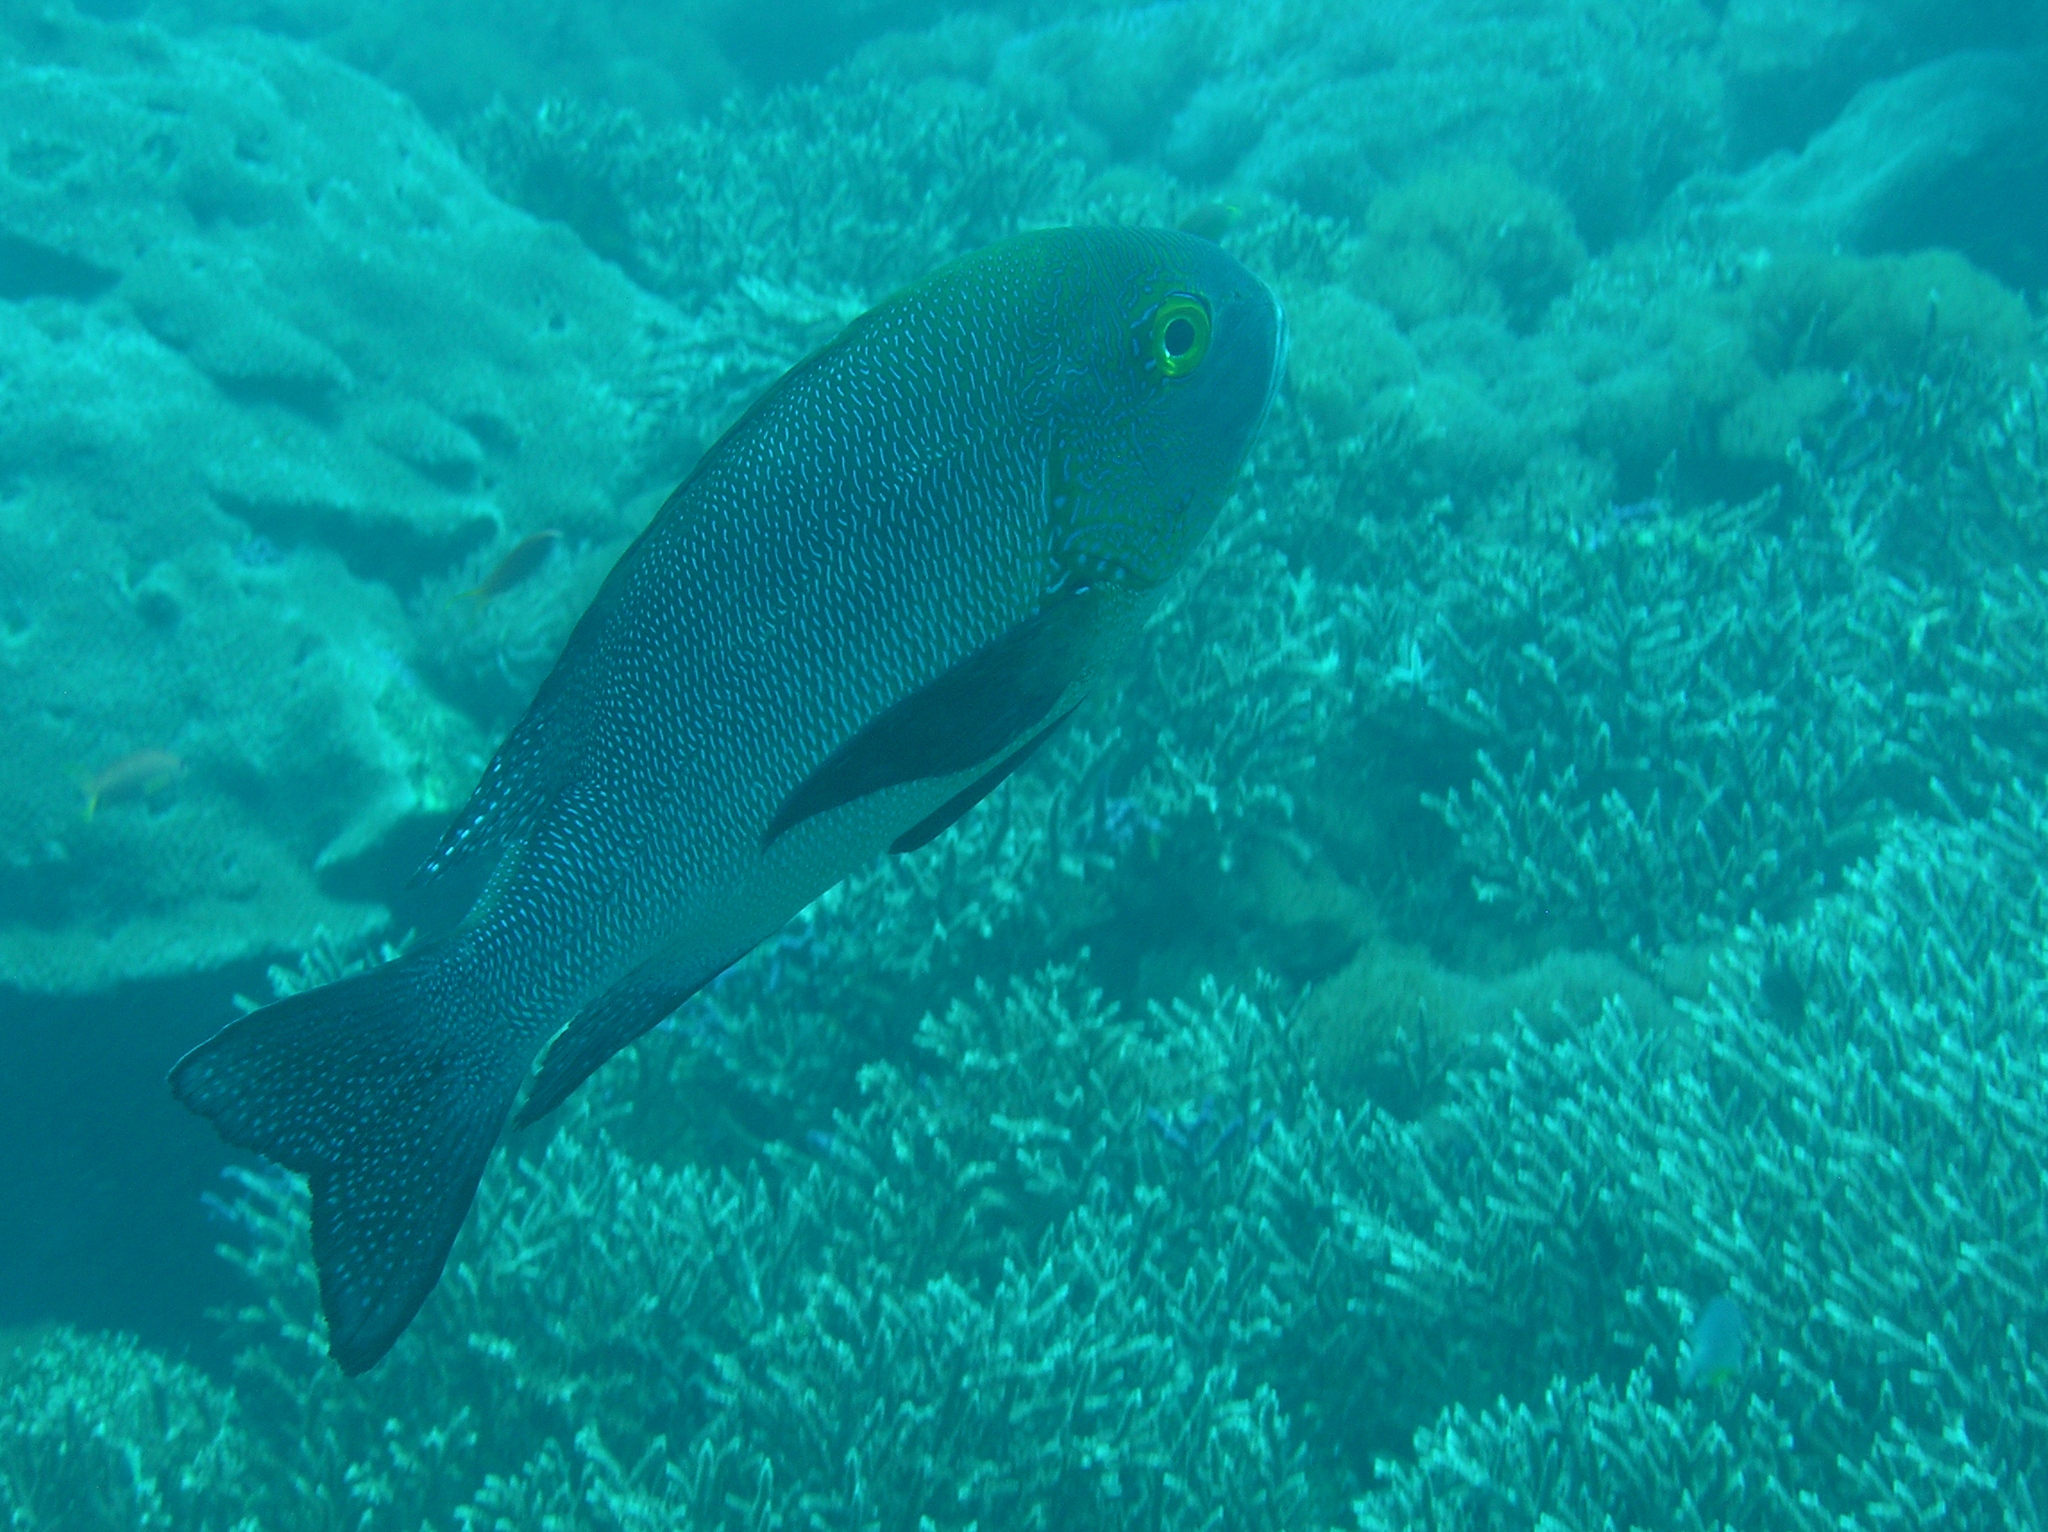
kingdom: Animalia
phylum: Chordata
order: Perciformes
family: Lutjanidae
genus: Macolor
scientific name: Macolor macularis
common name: Midnight snapper
